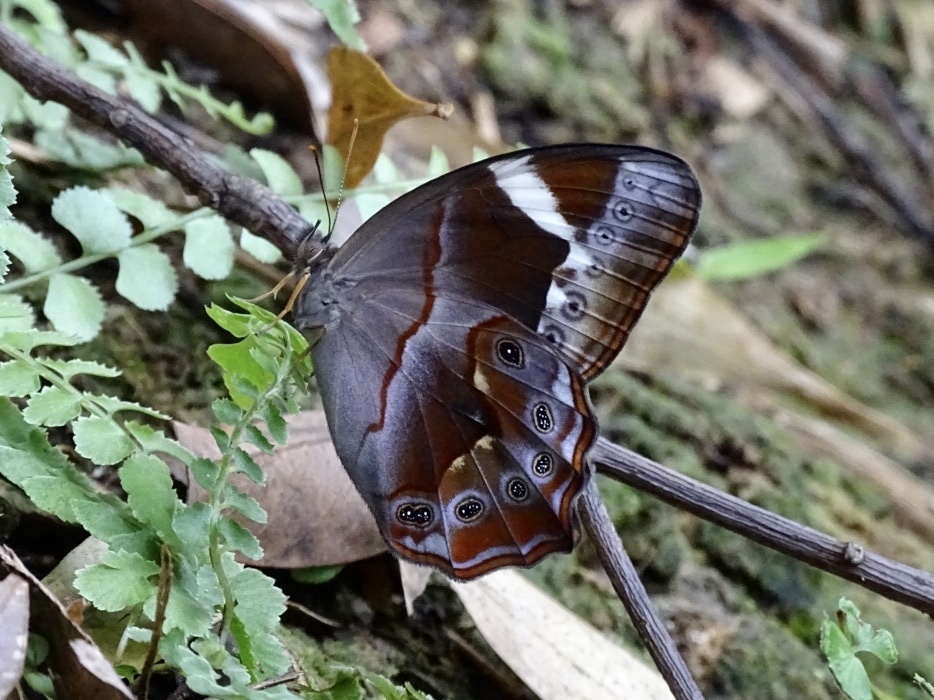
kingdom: Animalia
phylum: Arthropoda
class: Insecta
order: Lepidoptera
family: Nymphalidae
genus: Lethe
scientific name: Lethe chandica
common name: Angled red forester
